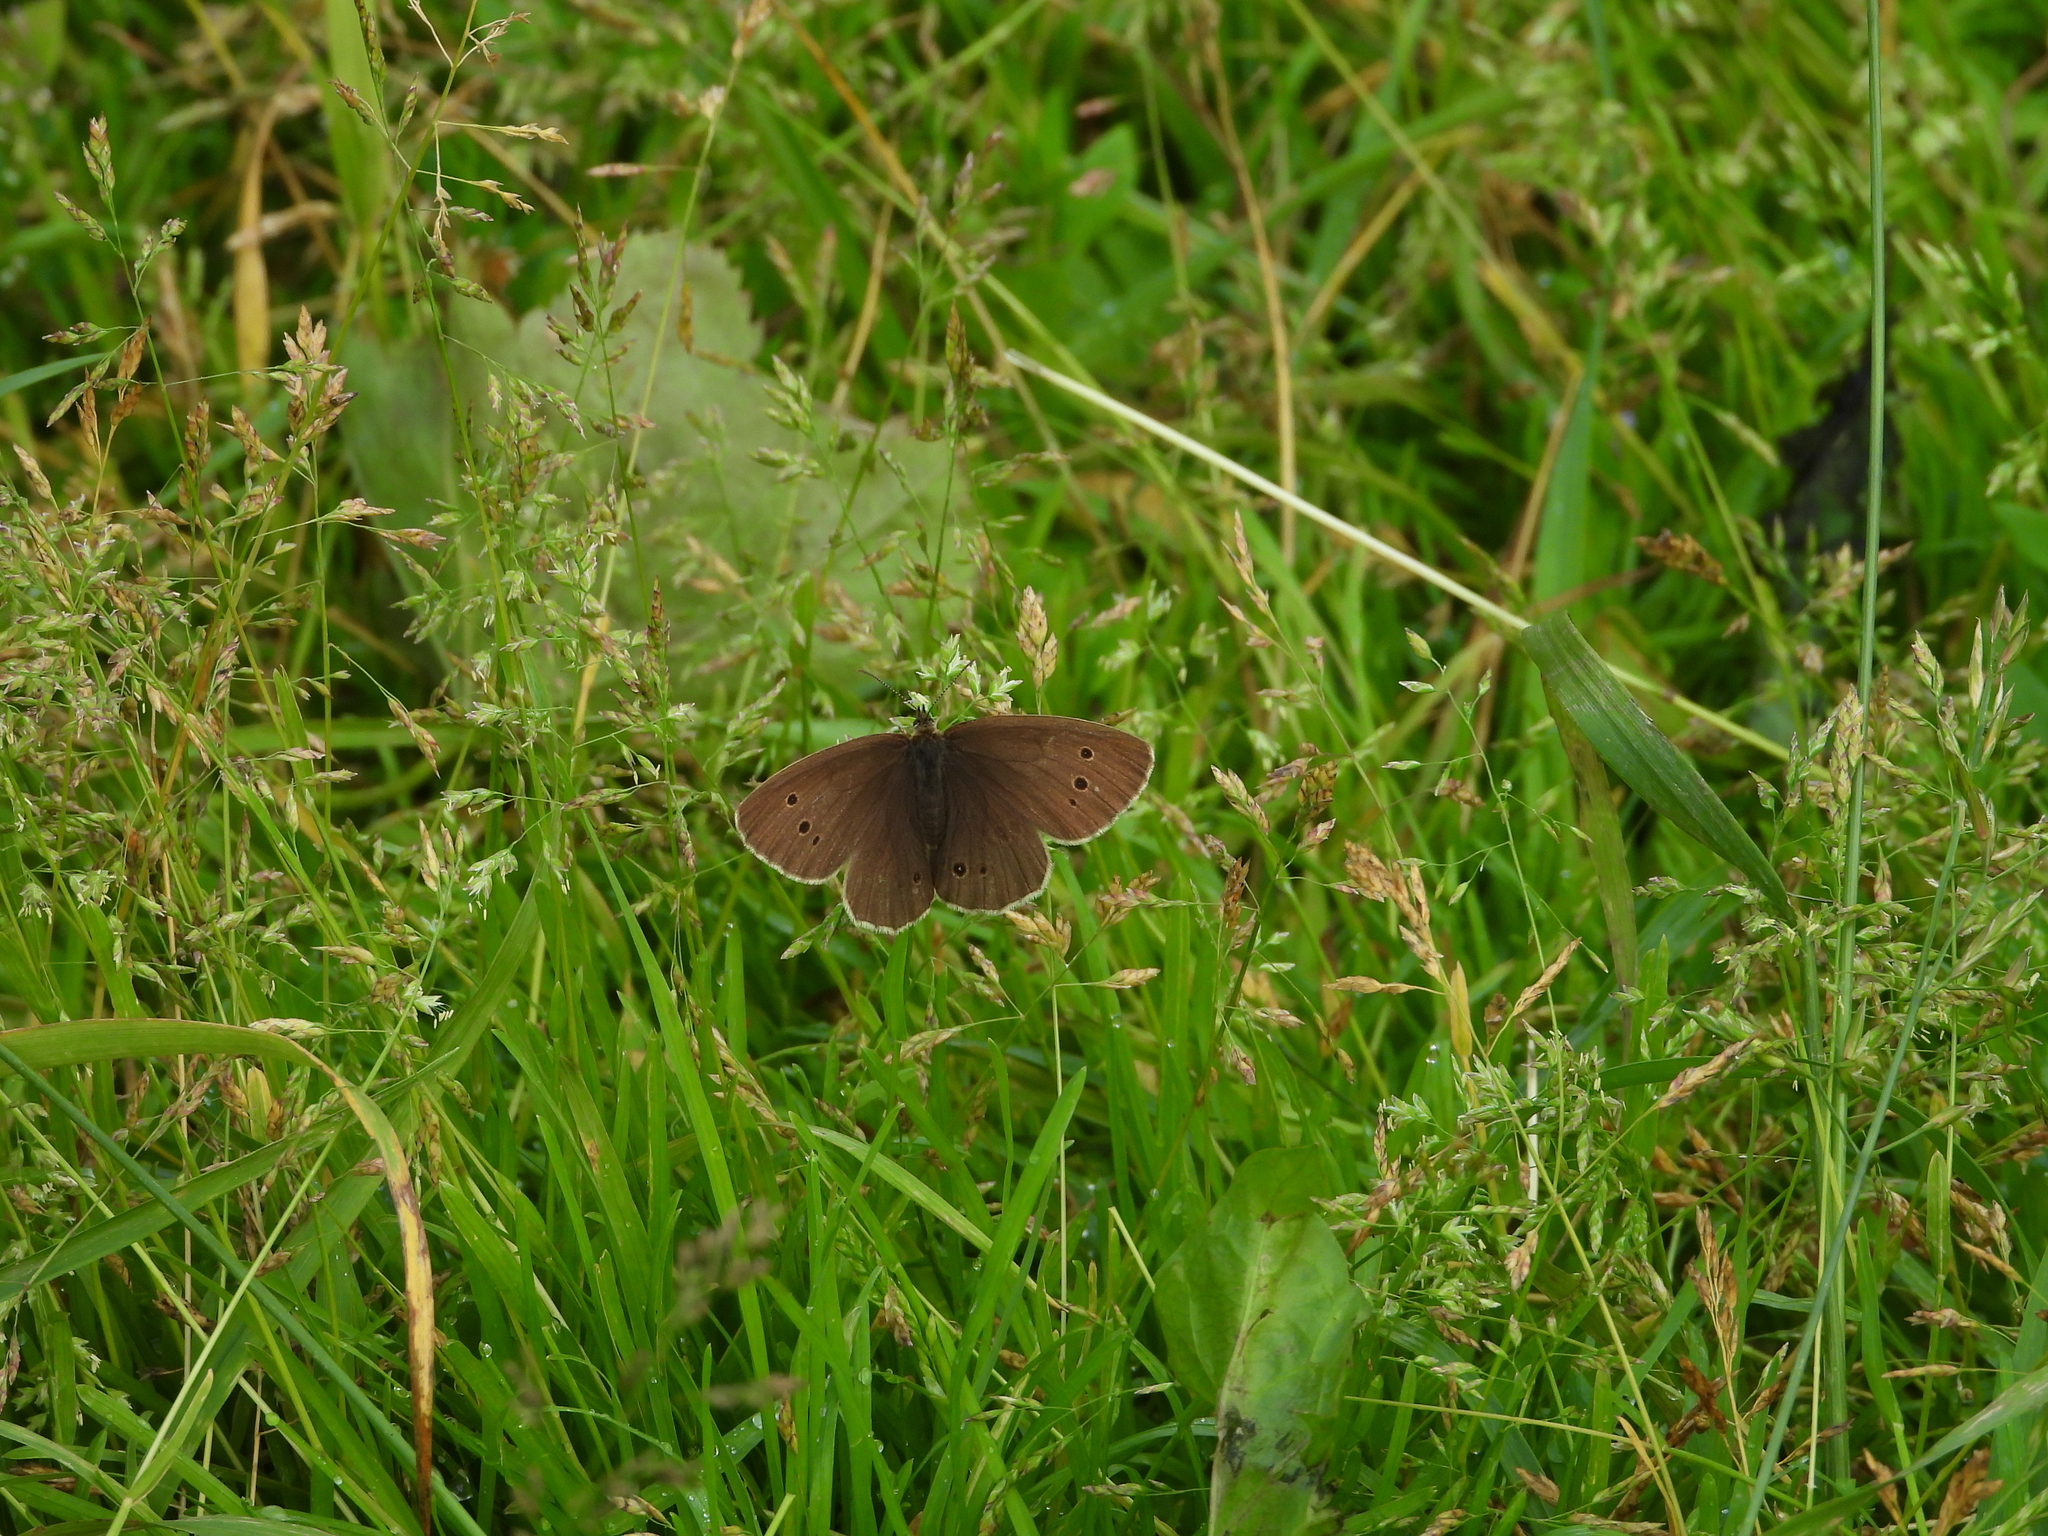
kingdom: Animalia
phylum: Arthropoda
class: Insecta
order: Lepidoptera
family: Nymphalidae
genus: Aphantopus
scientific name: Aphantopus hyperantus
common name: Ringlet
